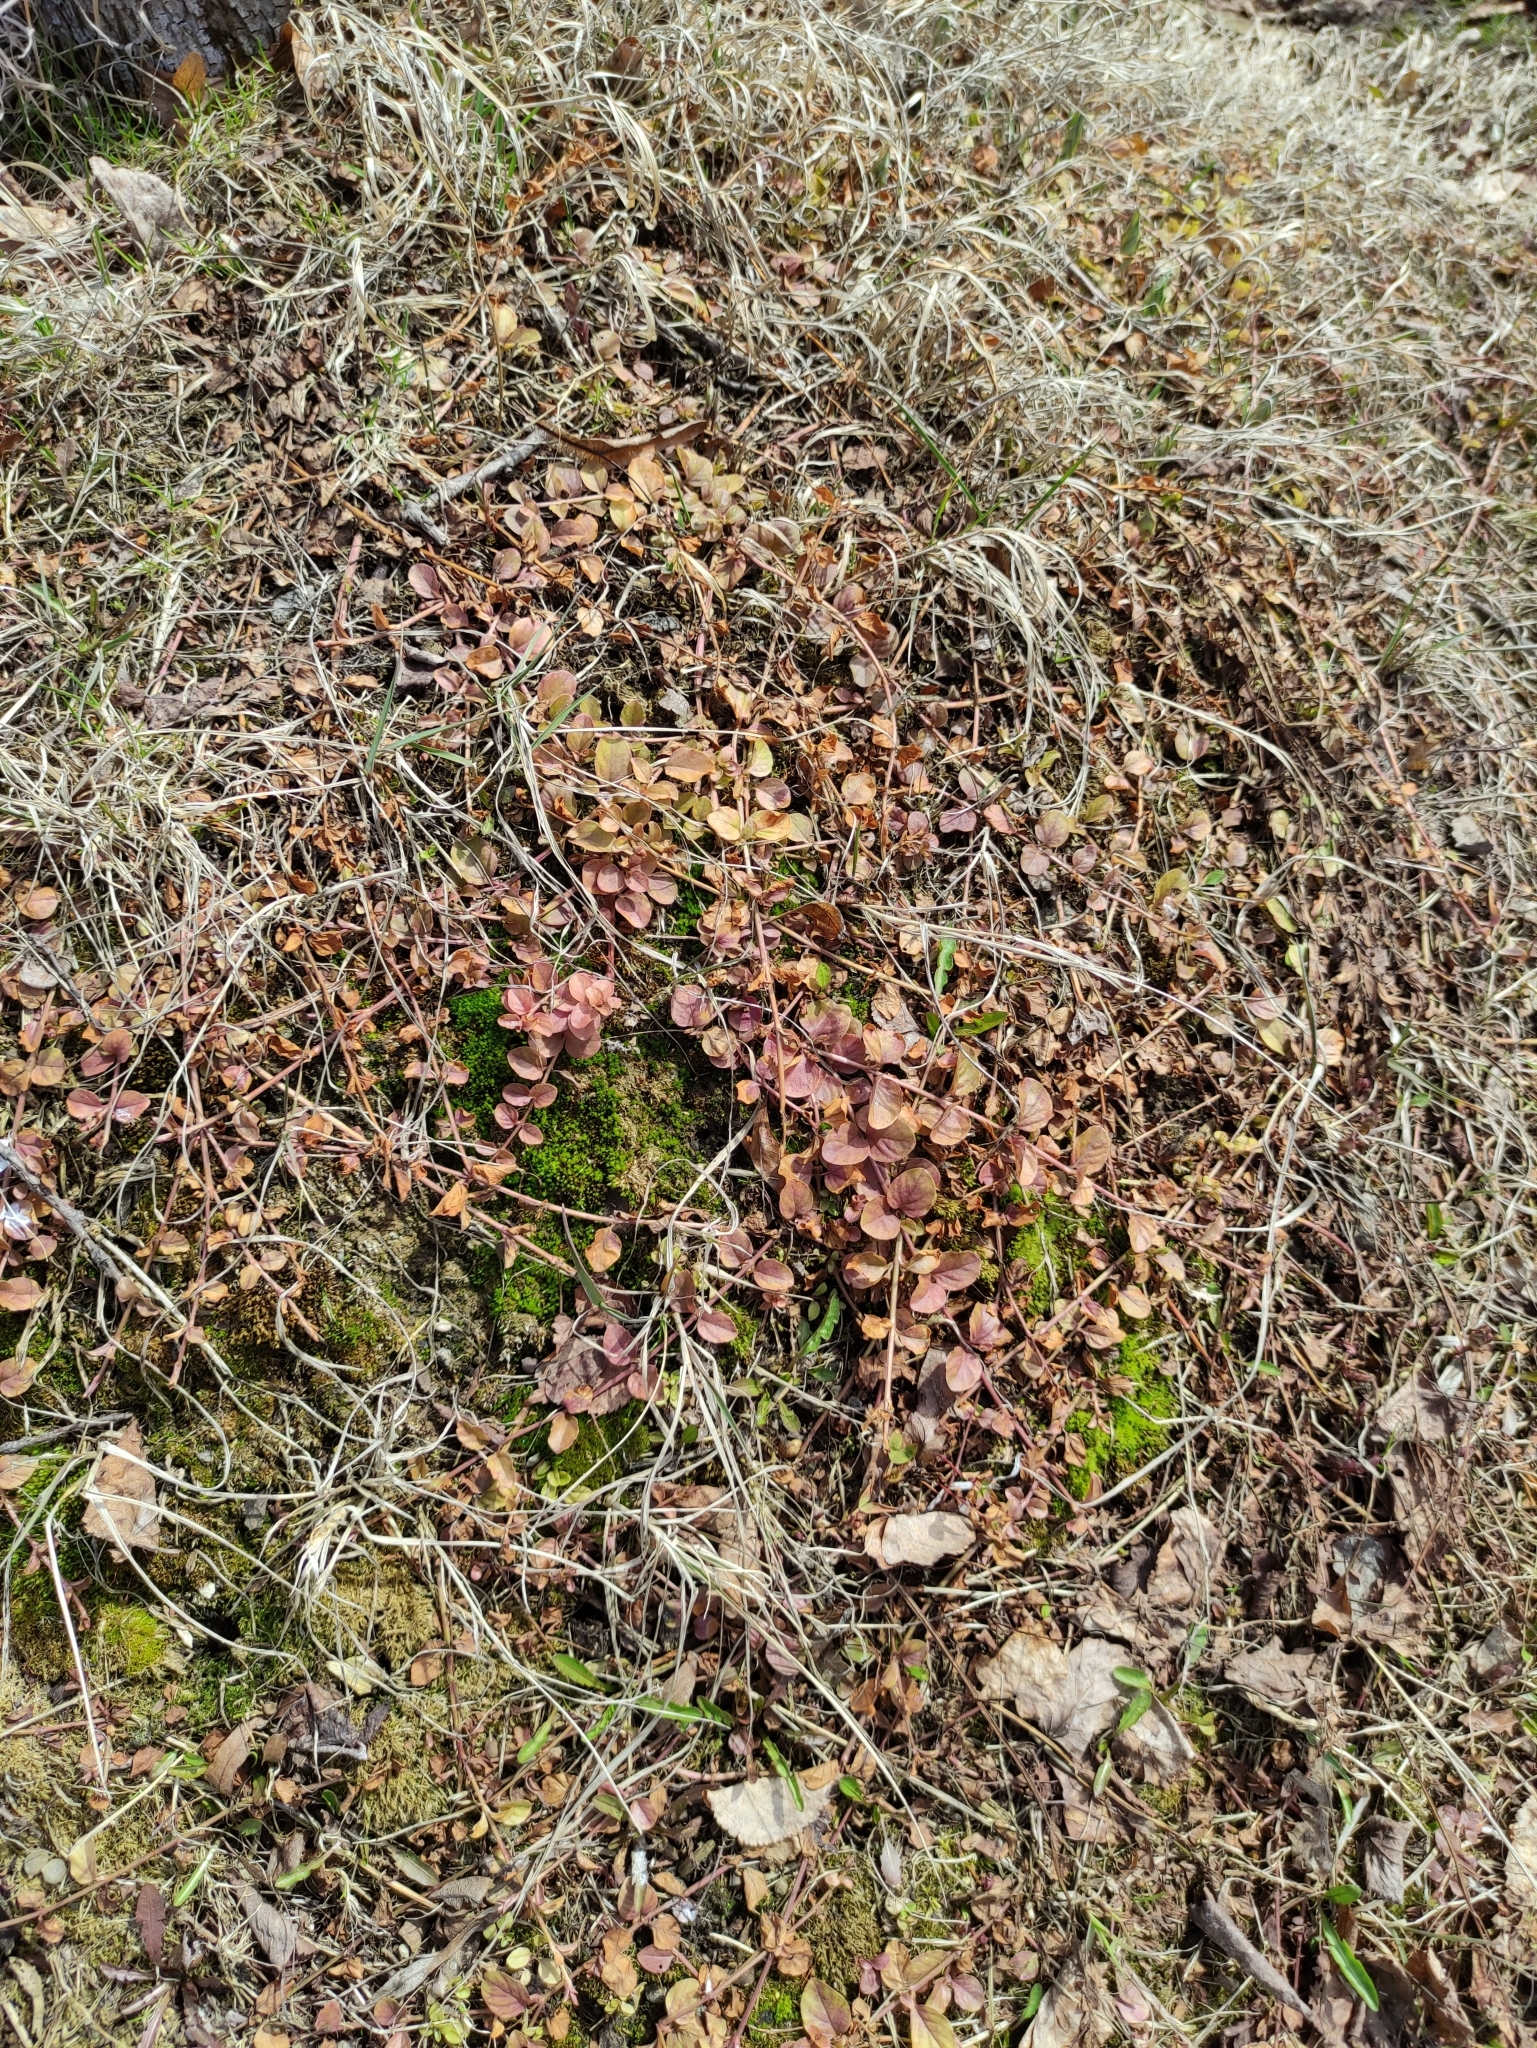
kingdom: Plantae
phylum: Tracheophyta
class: Magnoliopsida
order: Ericales
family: Primulaceae
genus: Lysimachia
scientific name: Lysimachia nummularia
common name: Moneywort
